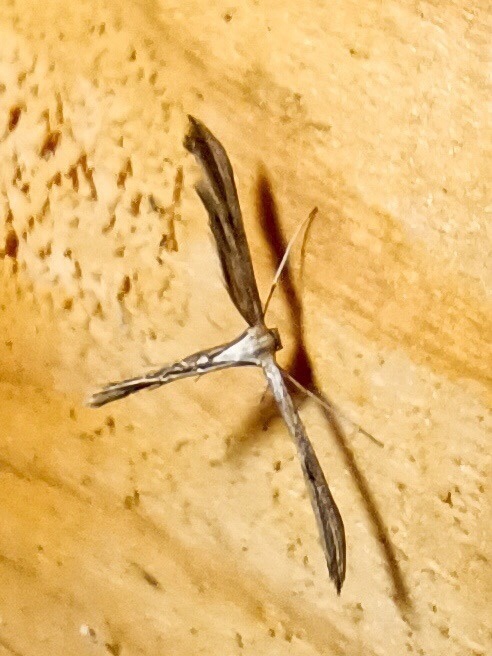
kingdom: Animalia
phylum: Arthropoda
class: Insecta
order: Lepidoptera
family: Pterophoridae
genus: Emmelina
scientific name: Emmelina monodactyla
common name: Common plume
